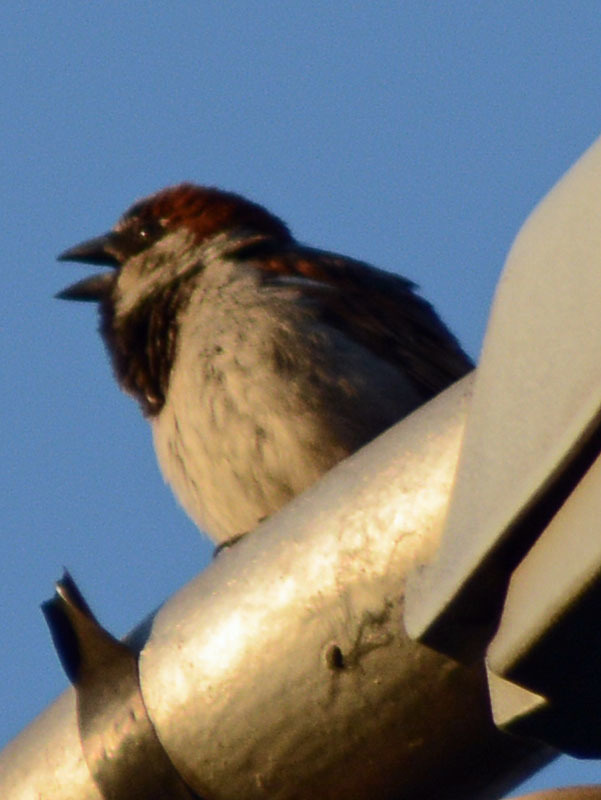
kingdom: Animalia
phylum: Chordata
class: Aves
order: Passeriformes
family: Passeridae
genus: Passer
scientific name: Passer domesticus
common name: House sparrow
